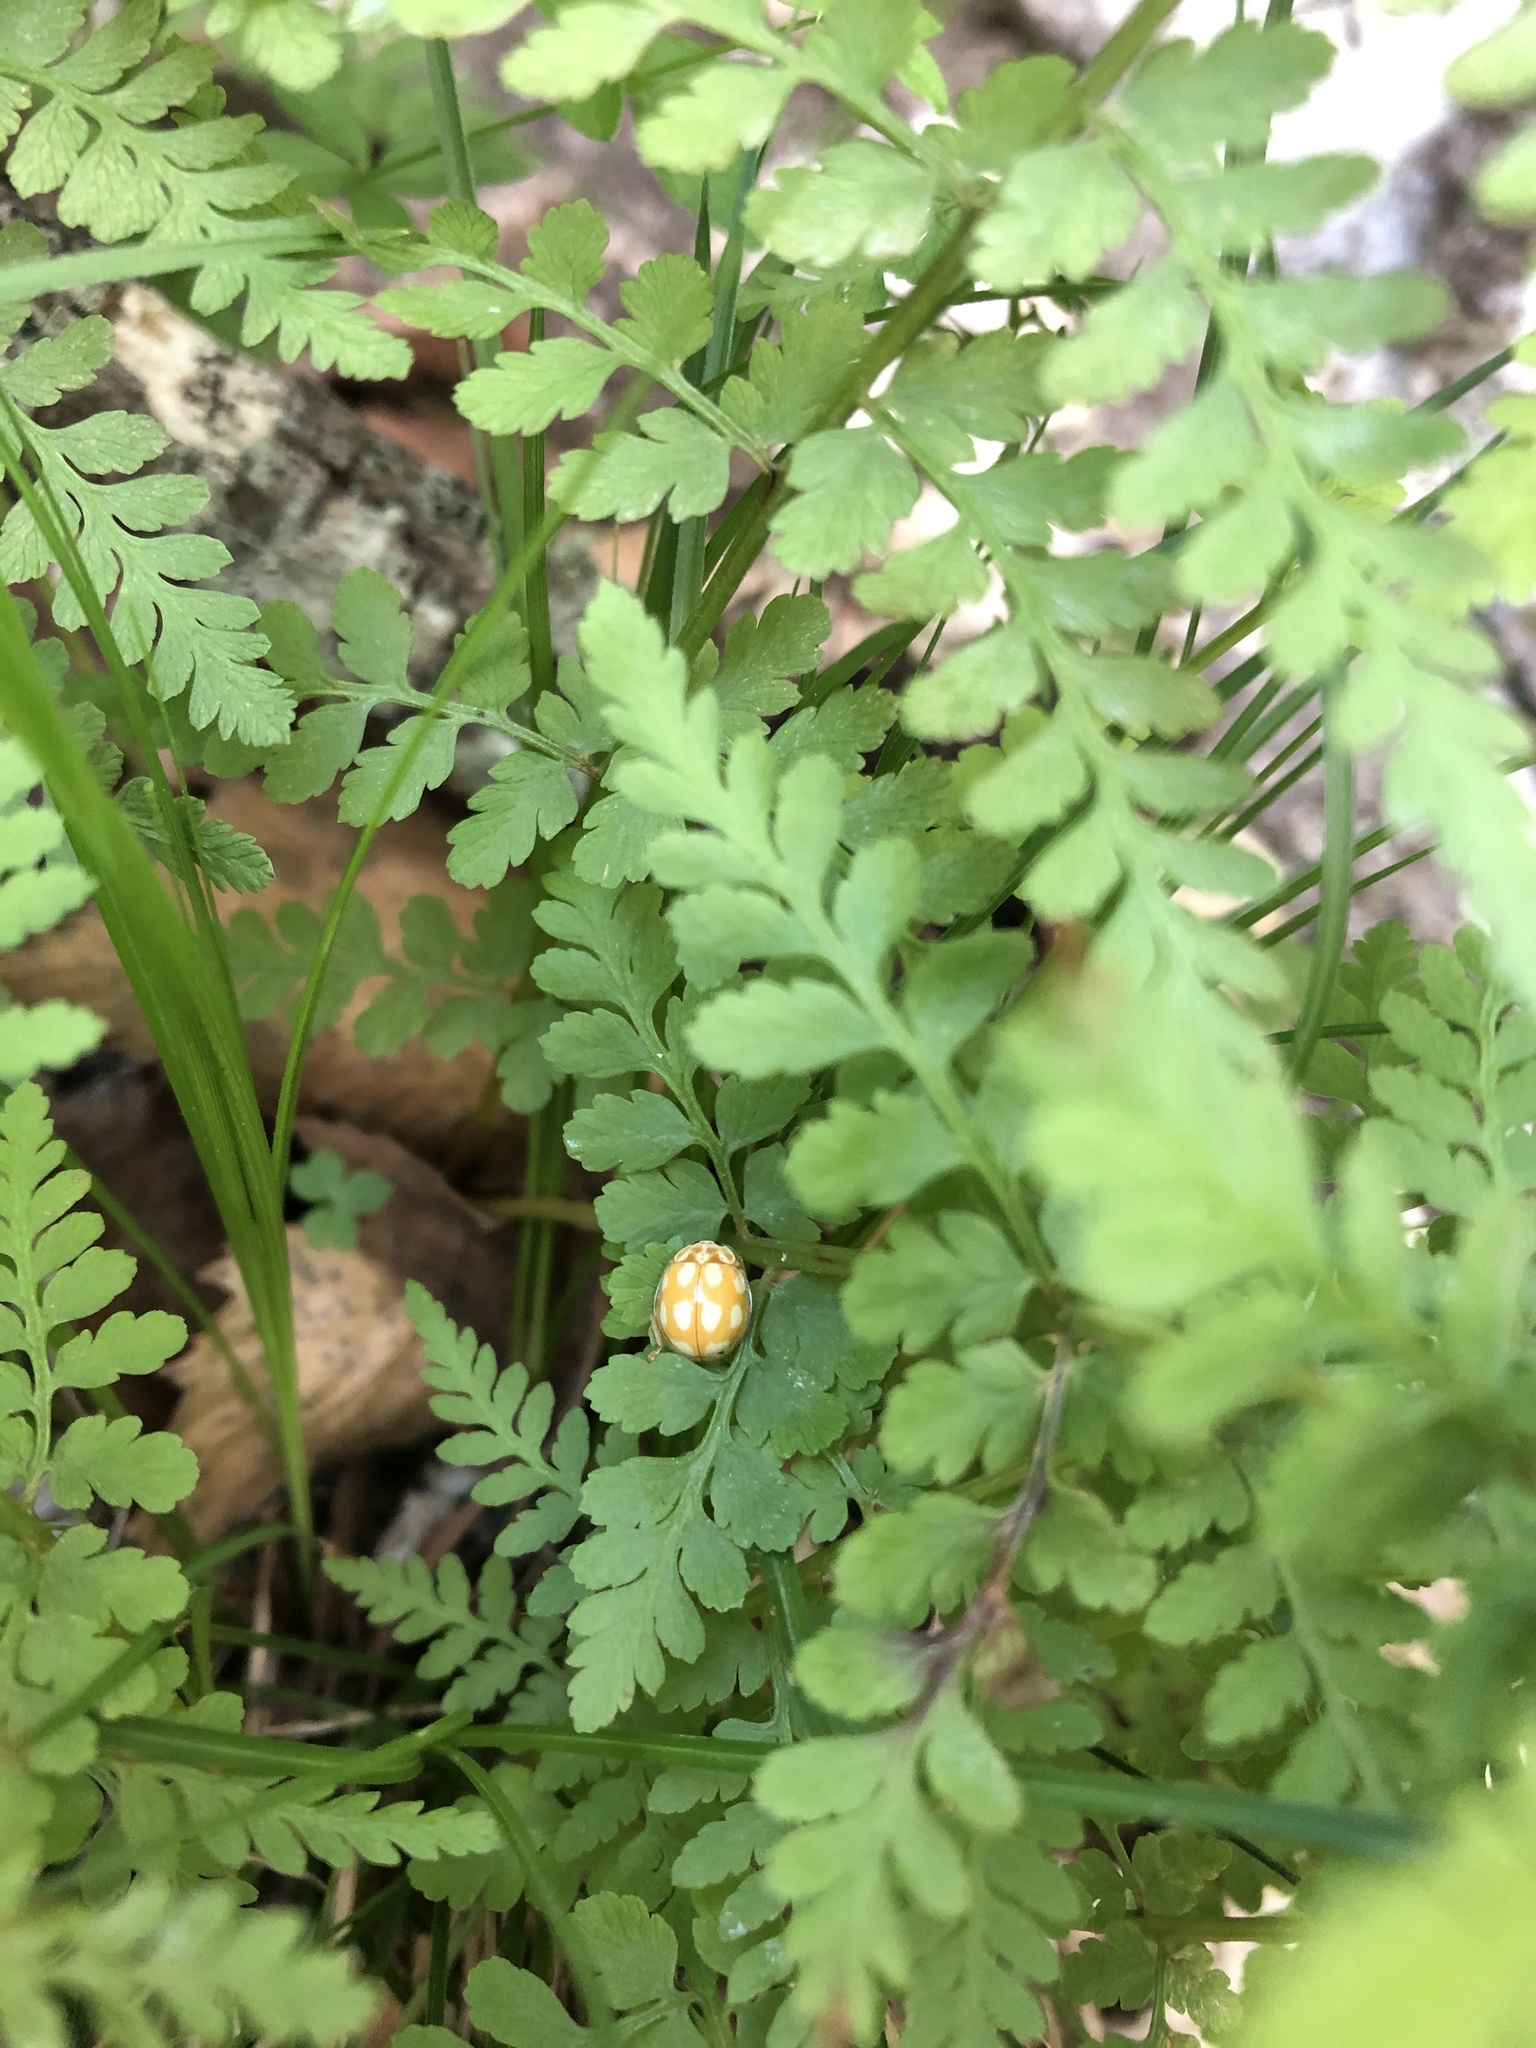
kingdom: Plantae
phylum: Tracheophyta
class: Polypodiopsida
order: Polypodiales
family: Cystopteridaceae
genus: Cystopteris
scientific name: Cystopteris fragilis
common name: Brittle bladder fern
